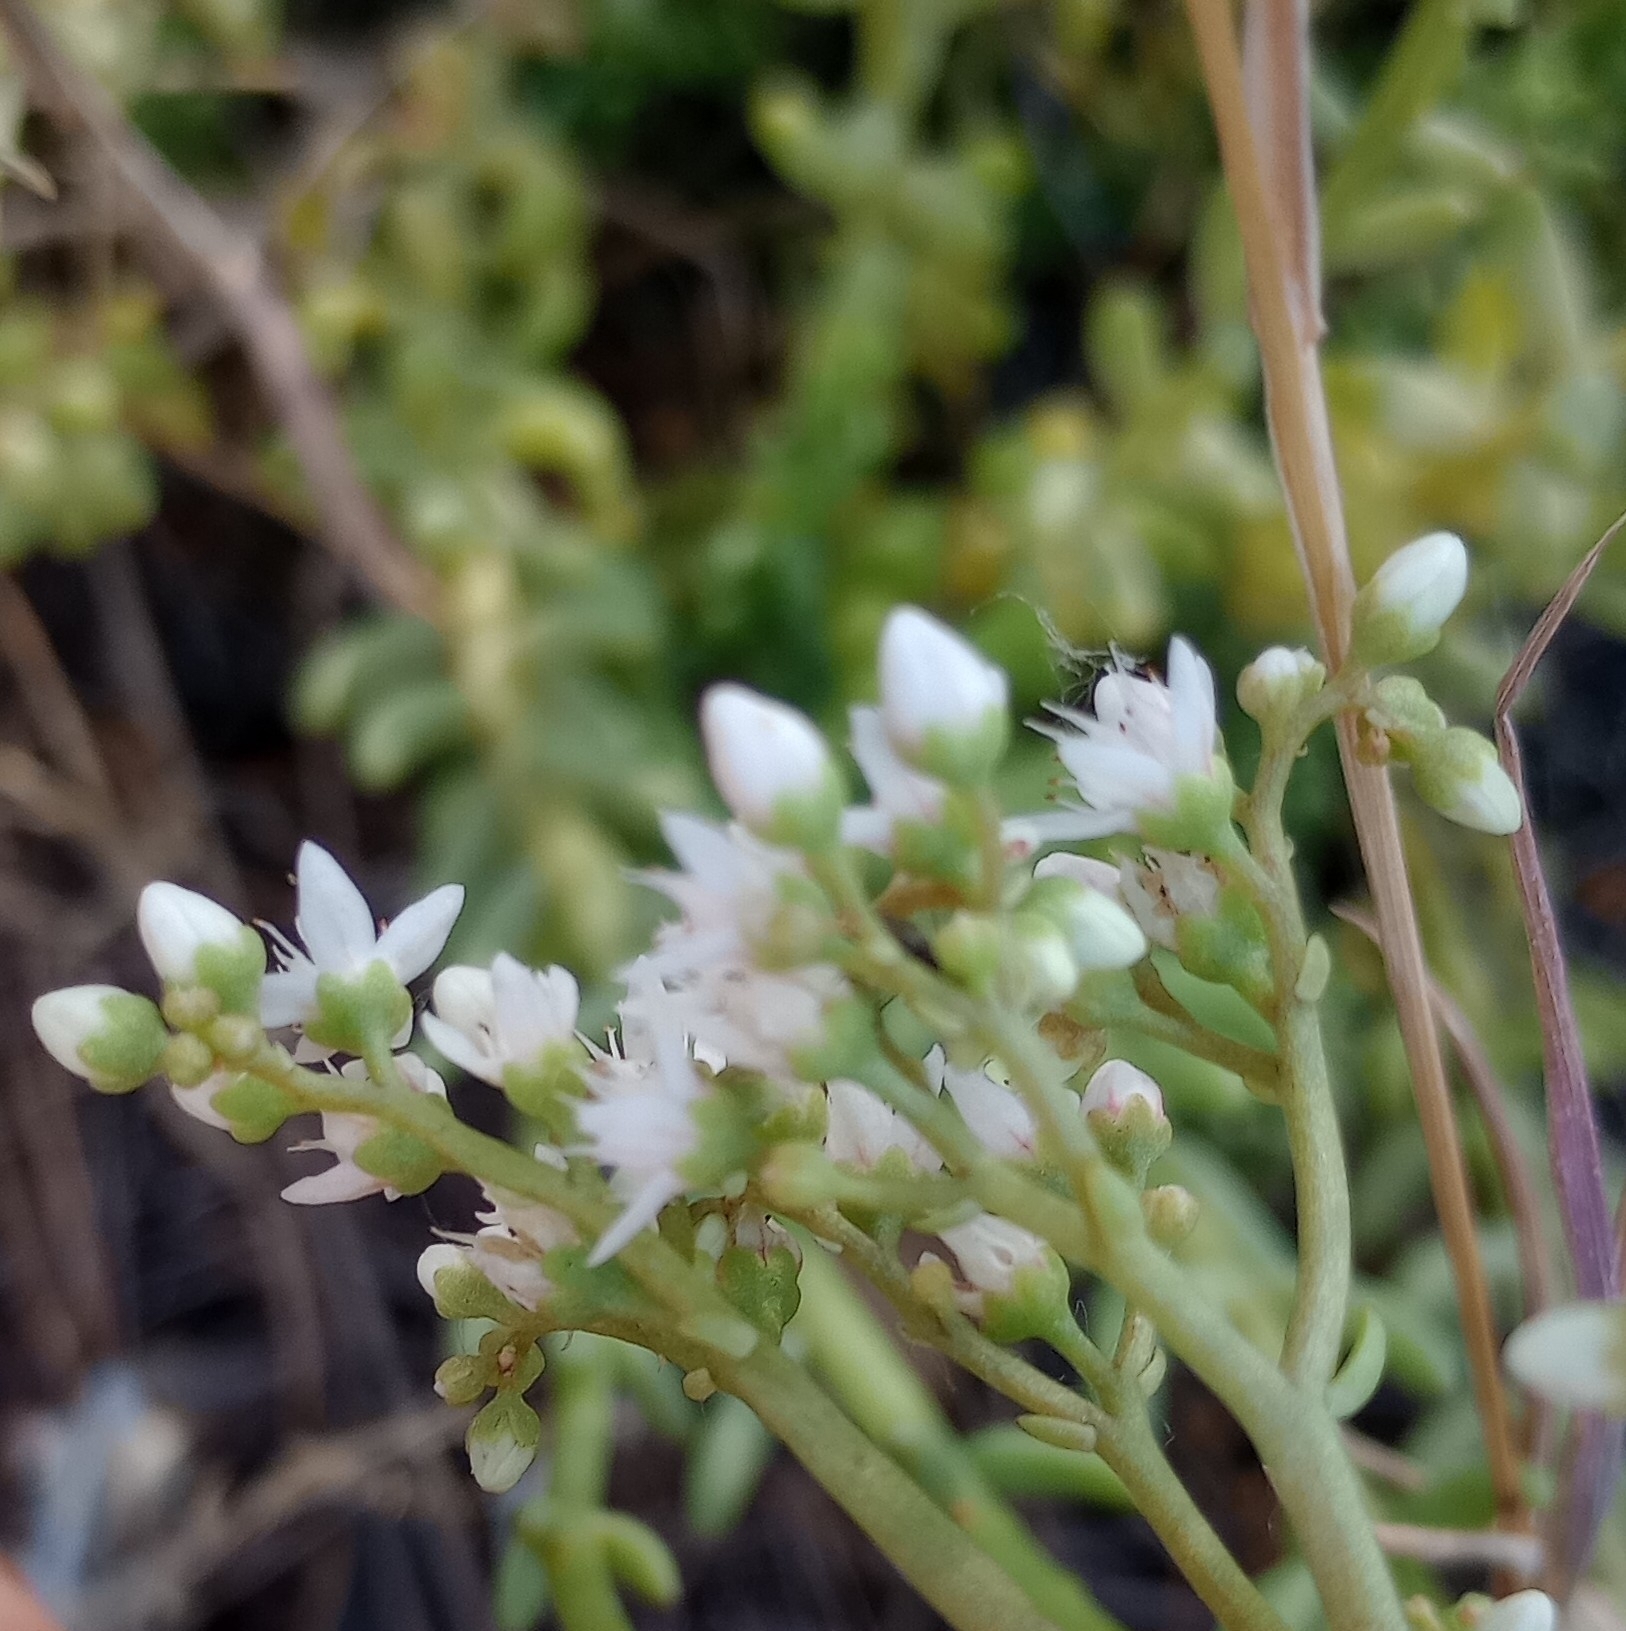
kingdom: Plantae
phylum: Tracheophyta
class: Magnoliopsida
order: Saxifragales
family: Crassulaceae
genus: Sedum
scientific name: Sedum album
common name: White stonecrop
